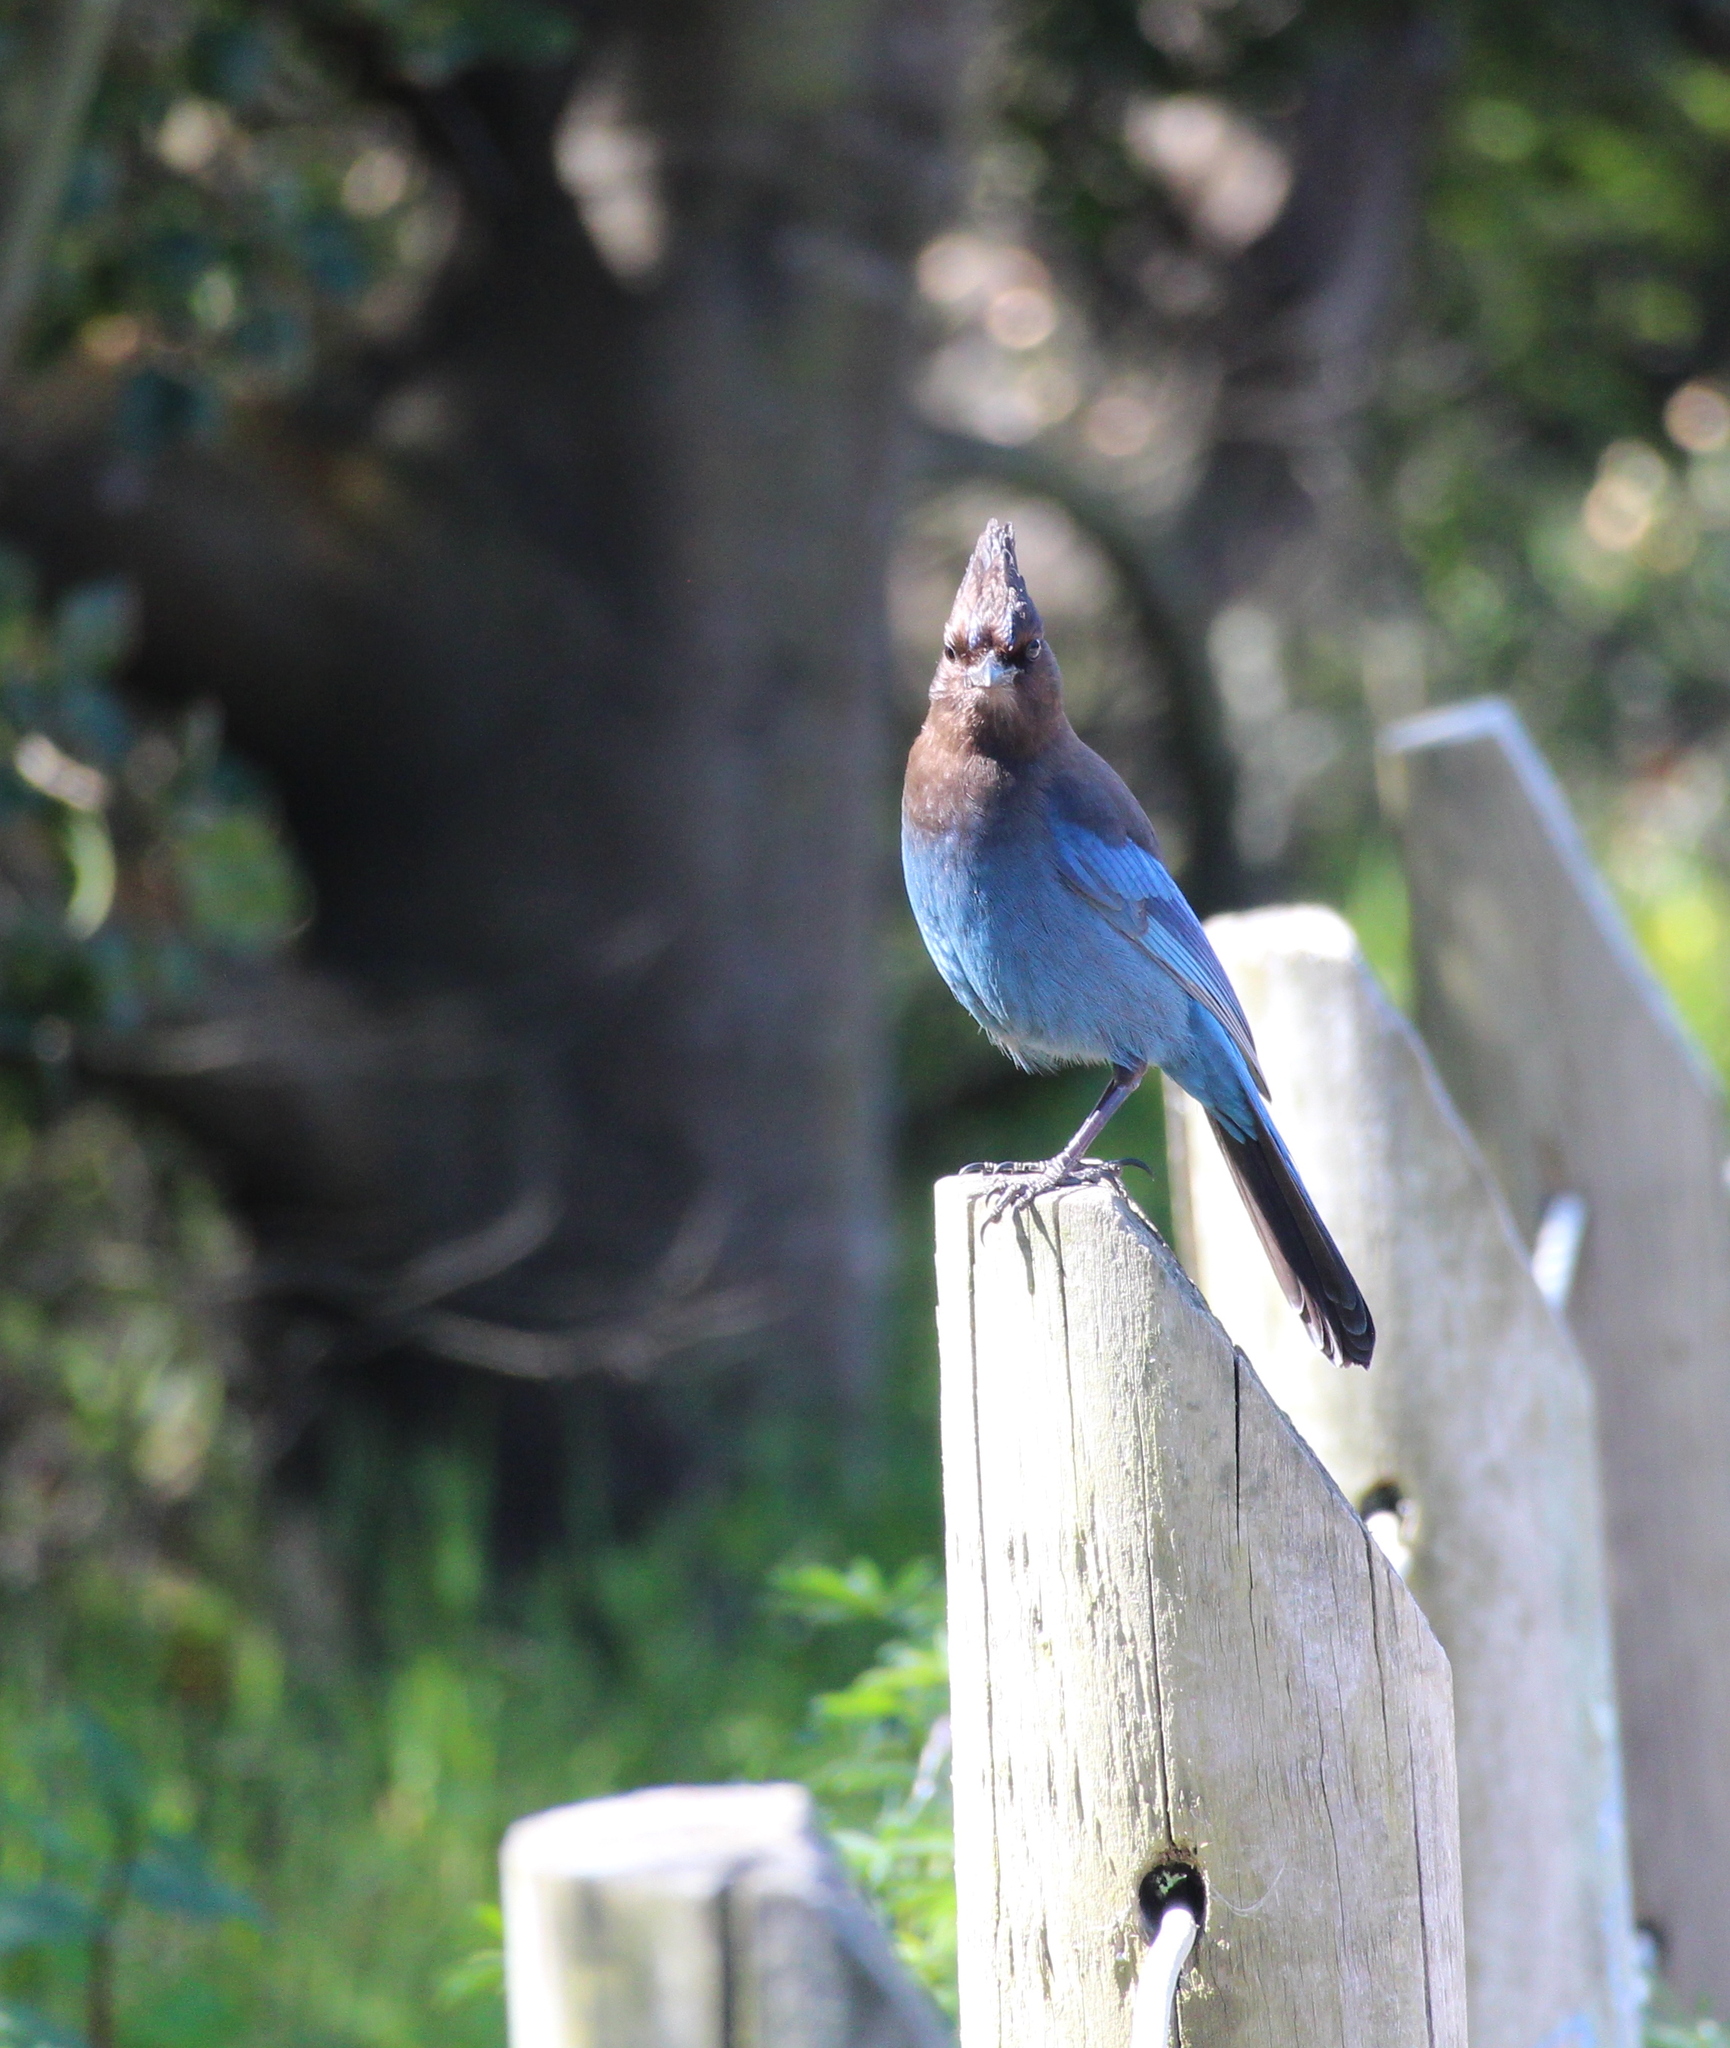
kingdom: Animalia
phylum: Chordata
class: Aves
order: Passeriformes
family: Corvidae
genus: Cyanocitta
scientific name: Cyanocitta stelleri
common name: Steller's jay
